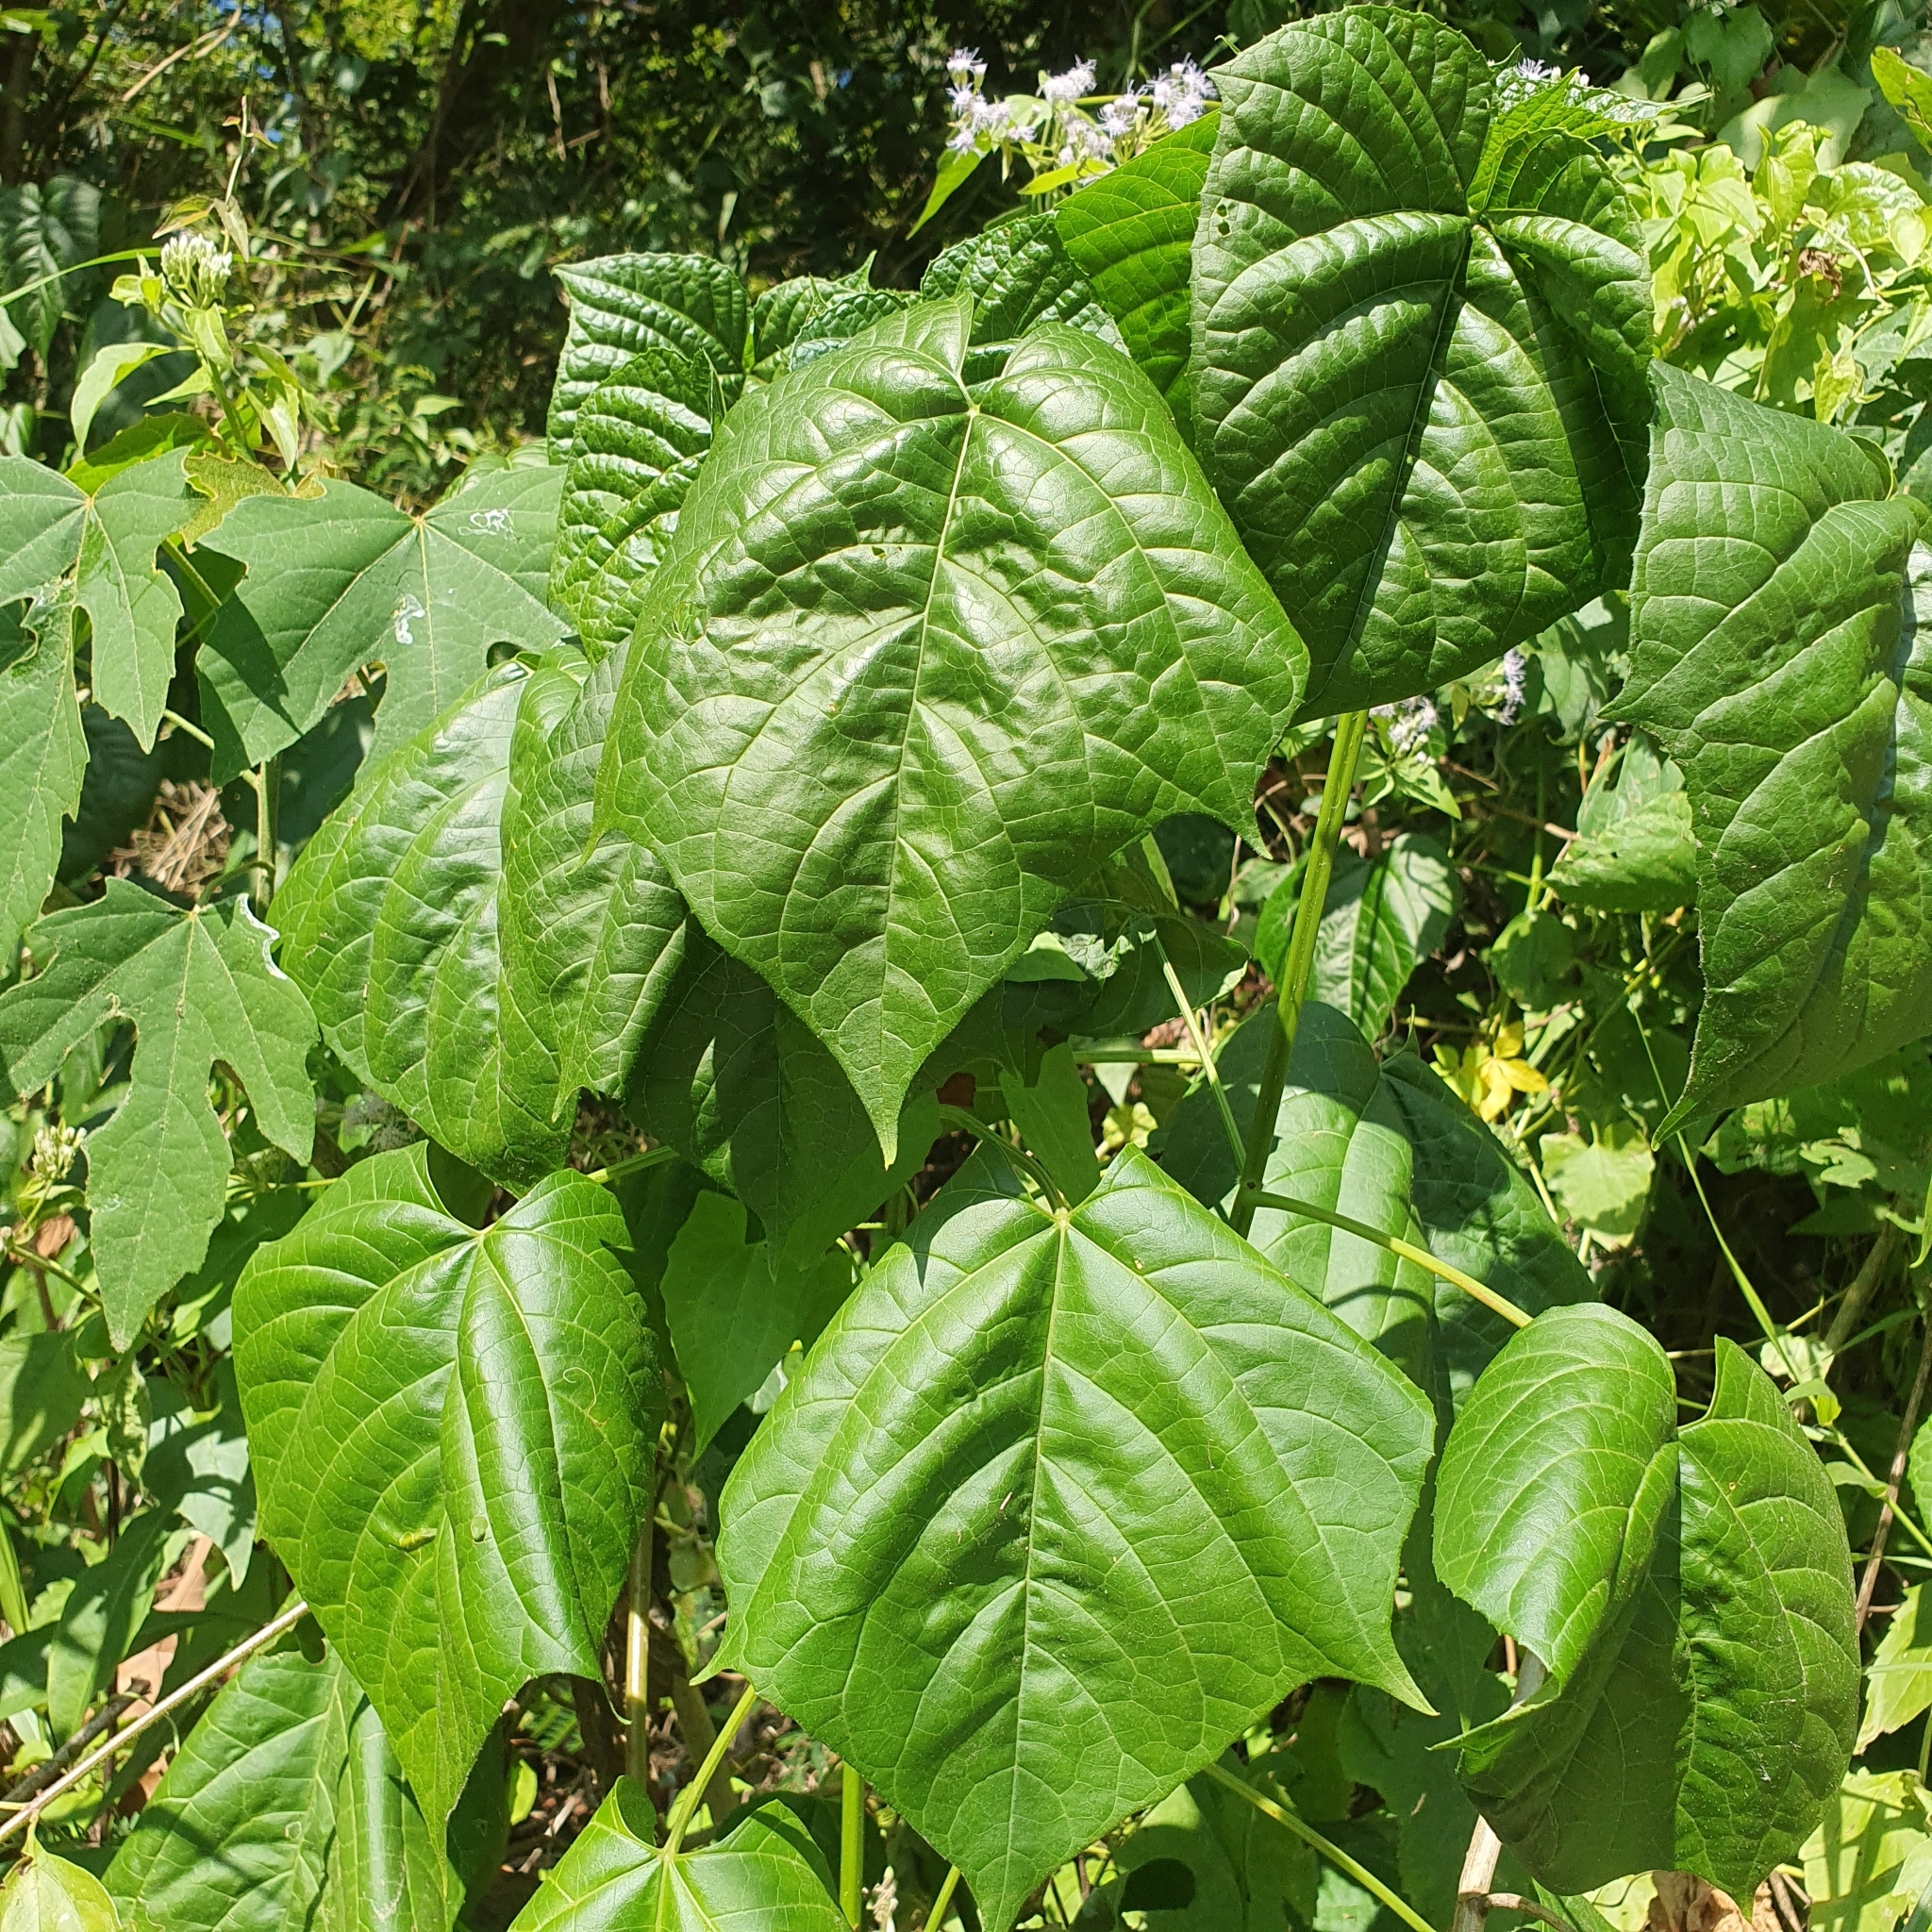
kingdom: Plantae
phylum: Tracheophyta
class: Magnoliopsida
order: Lamiales
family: Lamiaceae
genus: Clerodendrum
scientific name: Clerodendrum japonicum
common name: Japanese glorybower
